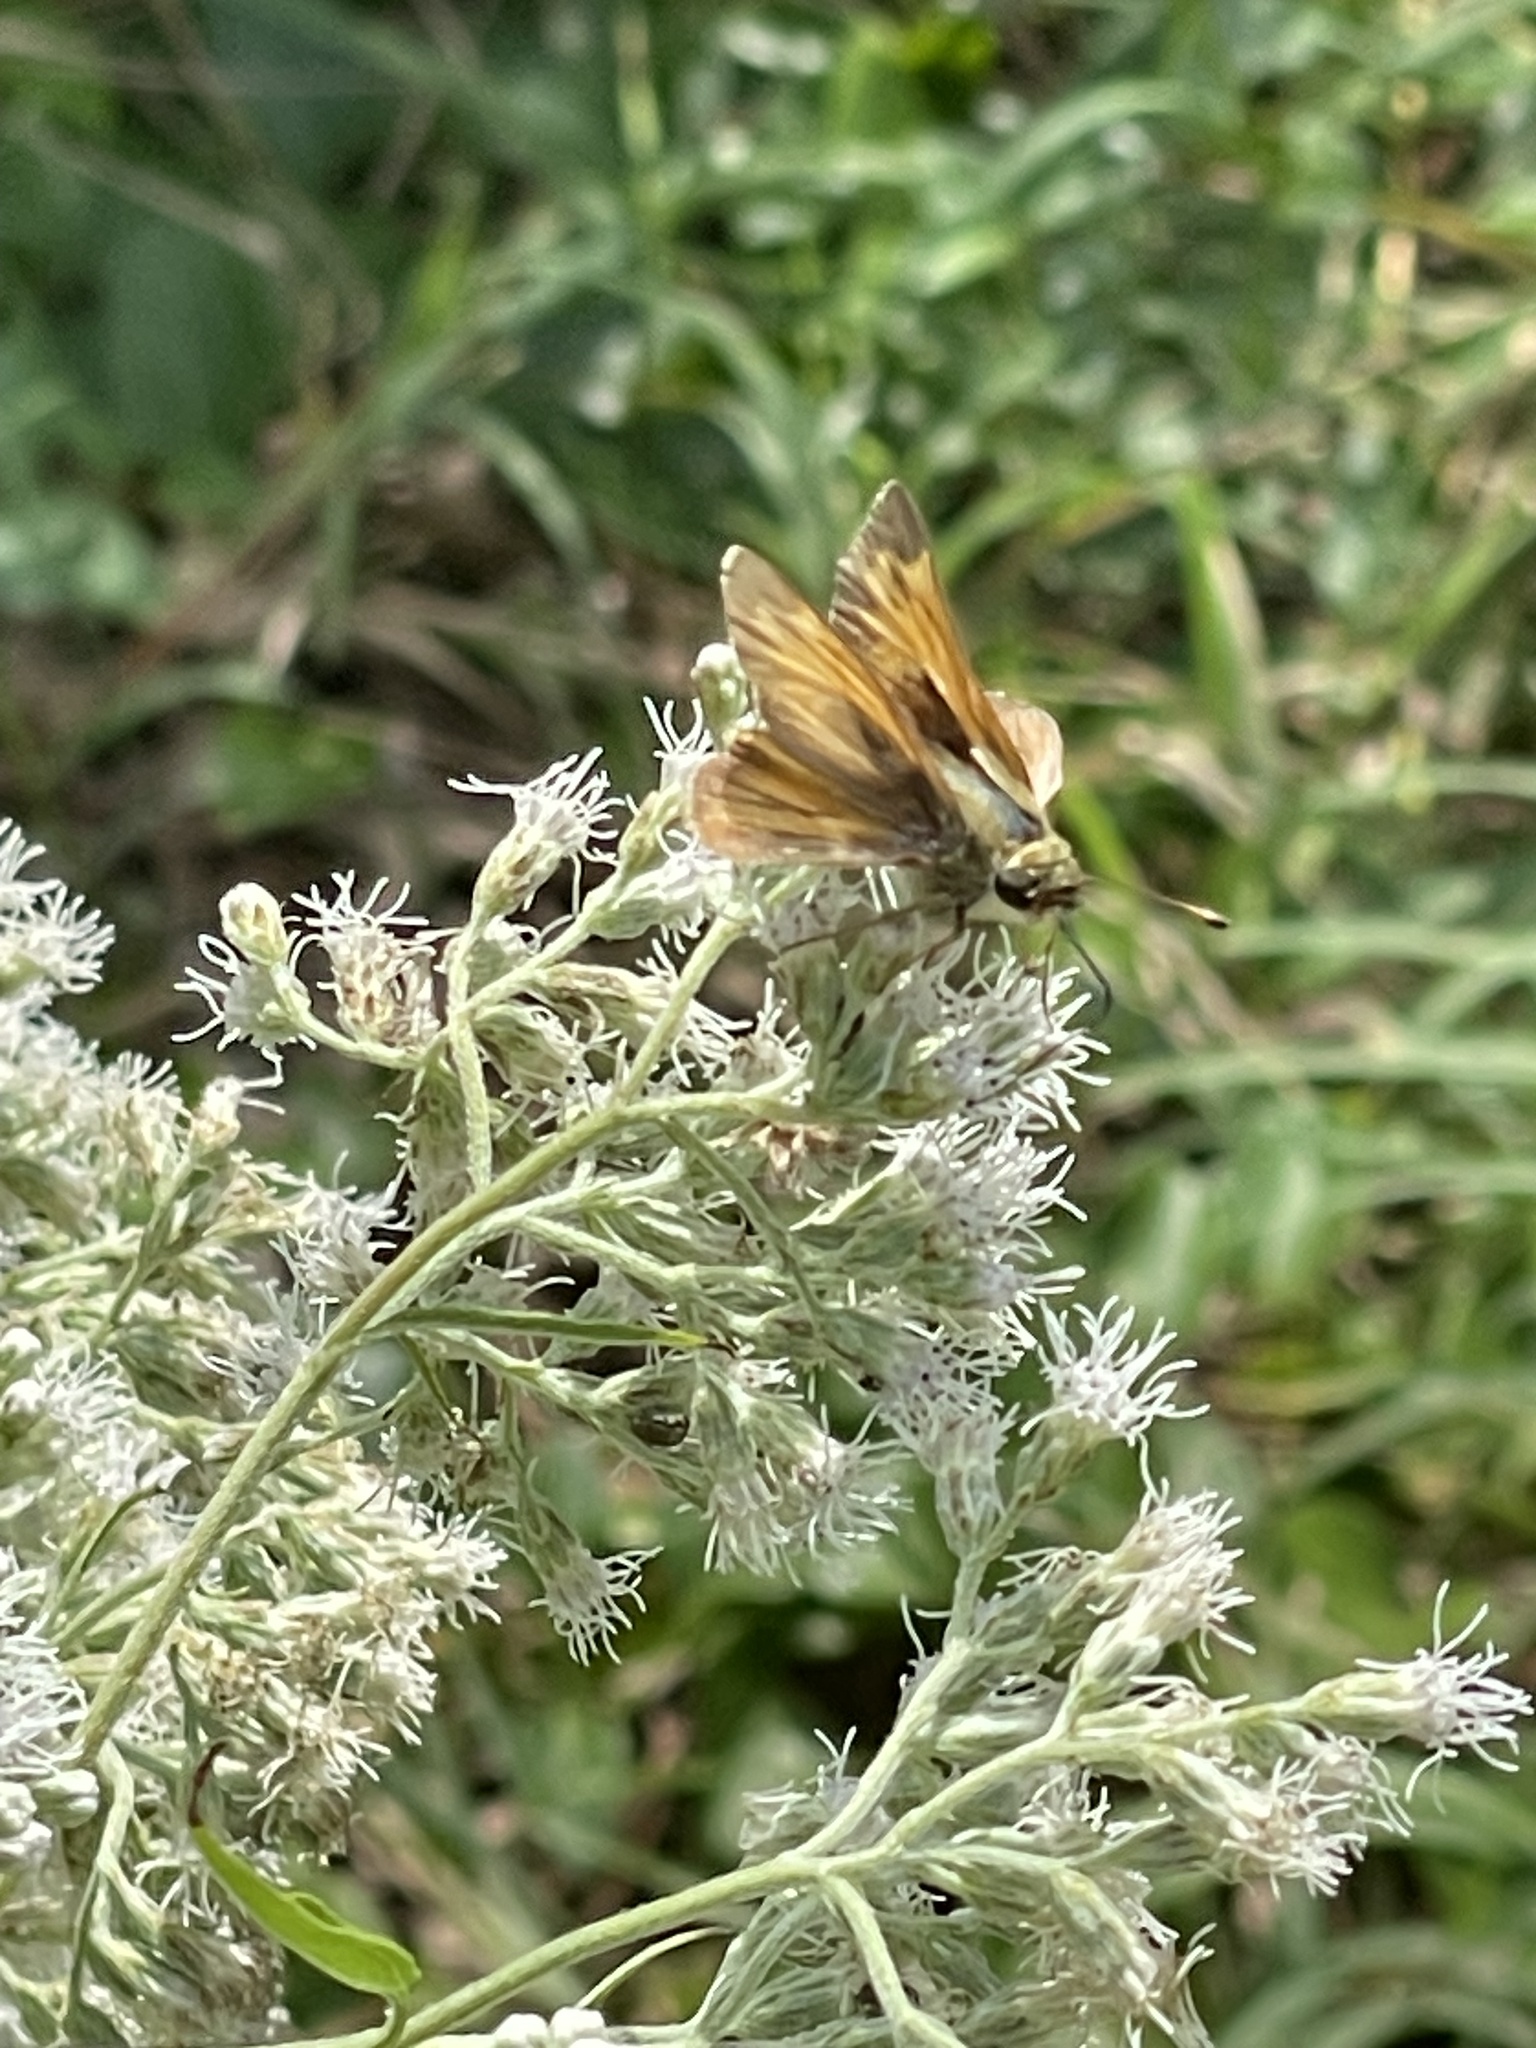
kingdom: Animalia
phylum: Arthropoda
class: Insecta
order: Lepidoptera
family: Hesperiidae
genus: Atalopedes
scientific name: Atalopedes
